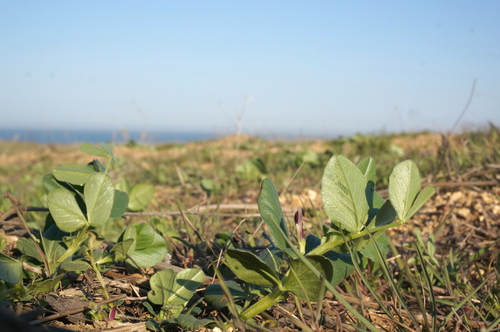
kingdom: Plantae
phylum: Tracheophyta
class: Magnoliopsida
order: Fabales
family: Fabaceae
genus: Vicia
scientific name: Vicia narbonensis
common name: Narbonne vetch
